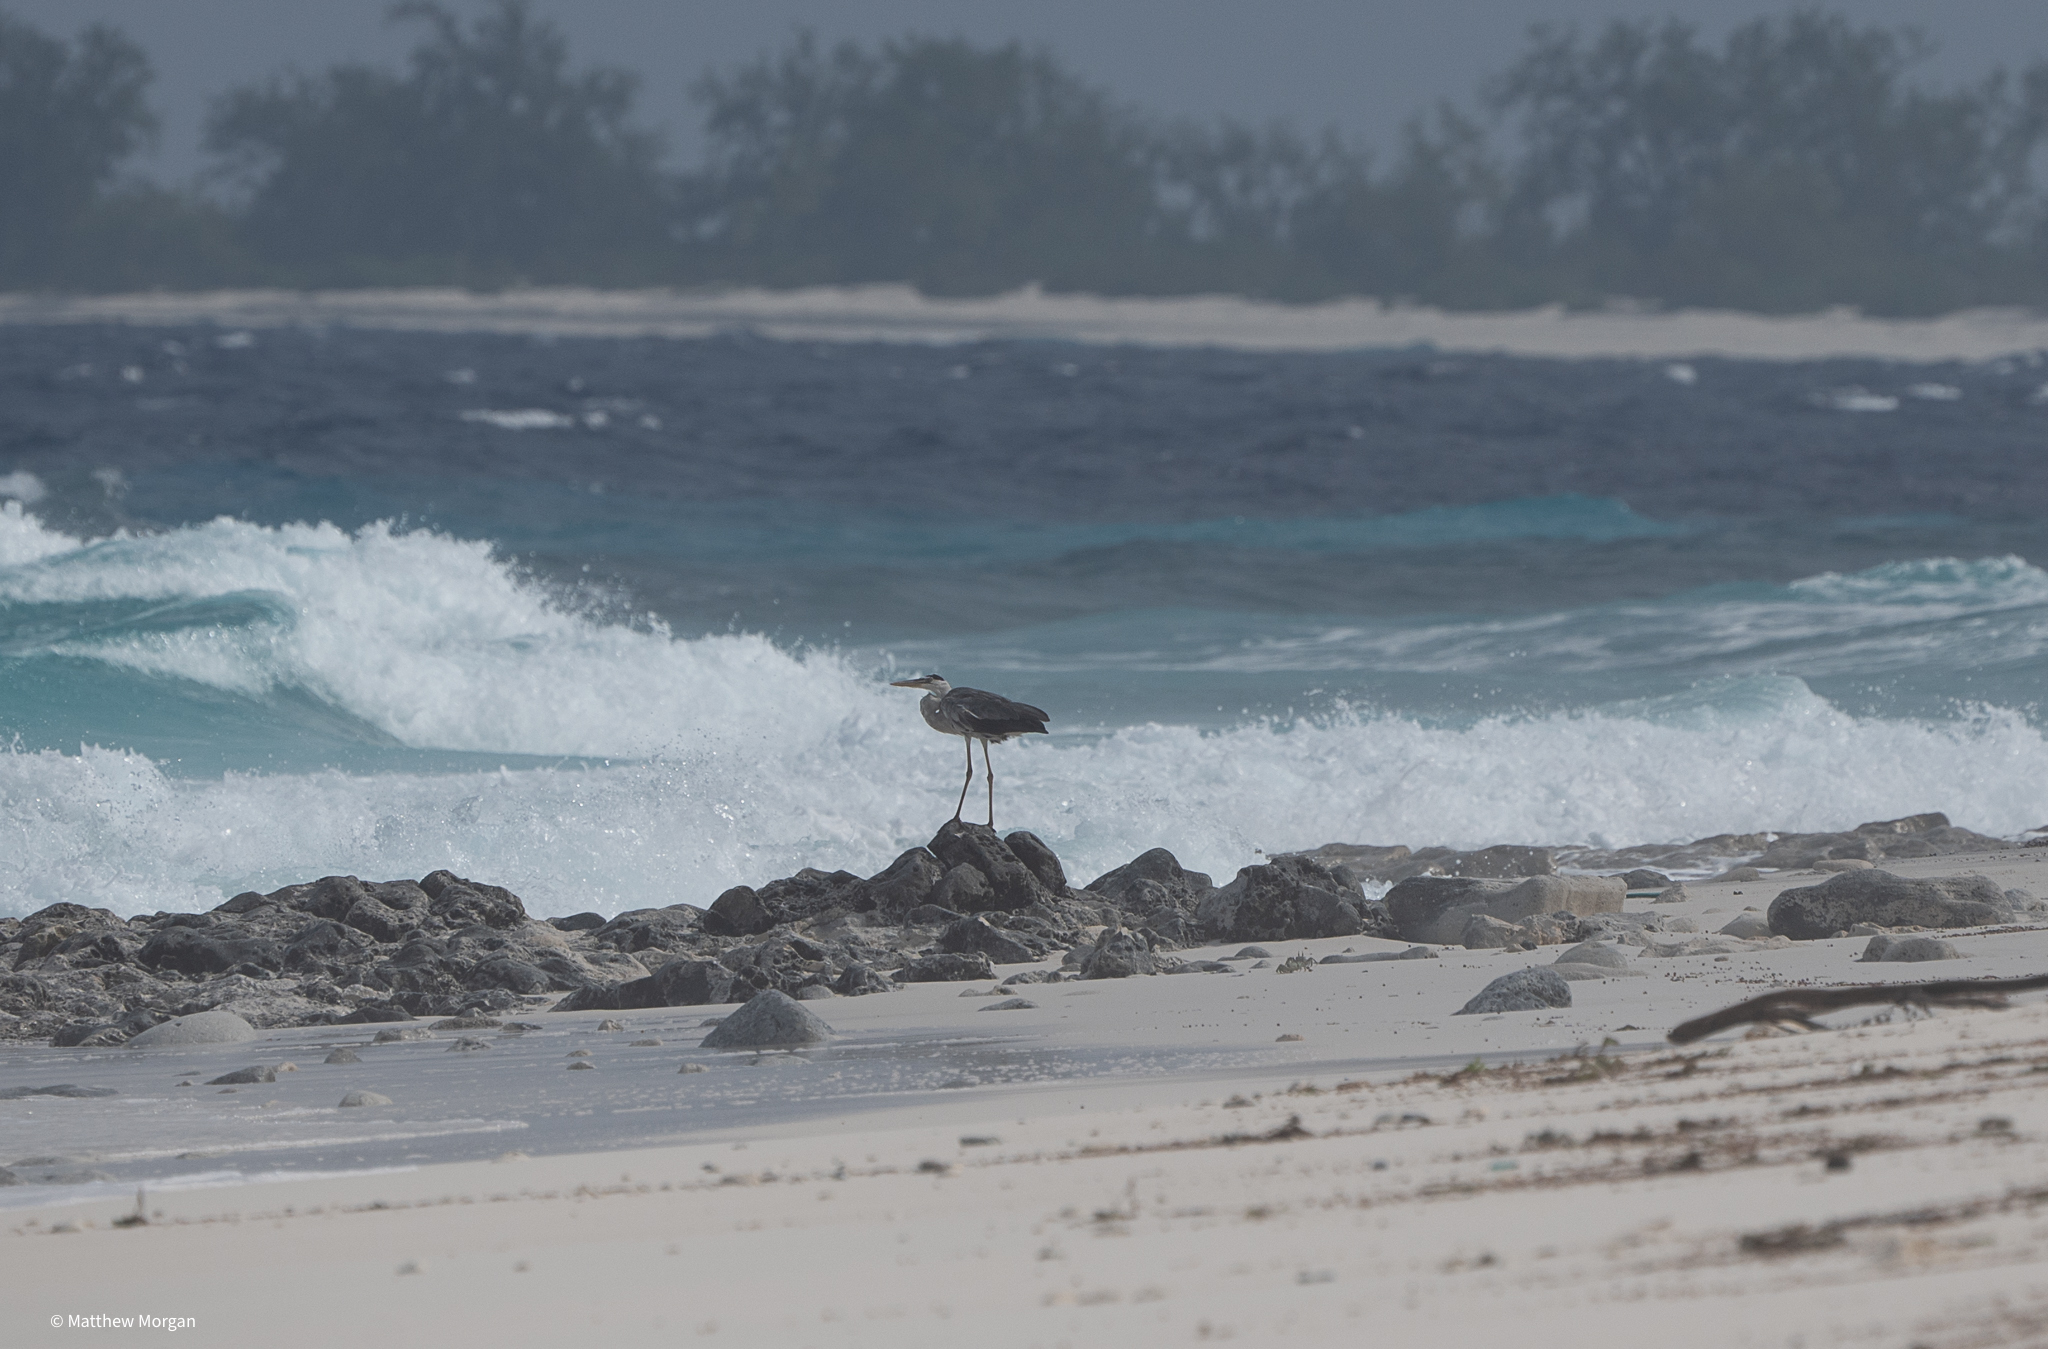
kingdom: Animalia
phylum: Chordata
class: Aves
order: Pelecaniformes
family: Ardeidae
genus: Ardea
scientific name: Ardea cinerea
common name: Grey heron
